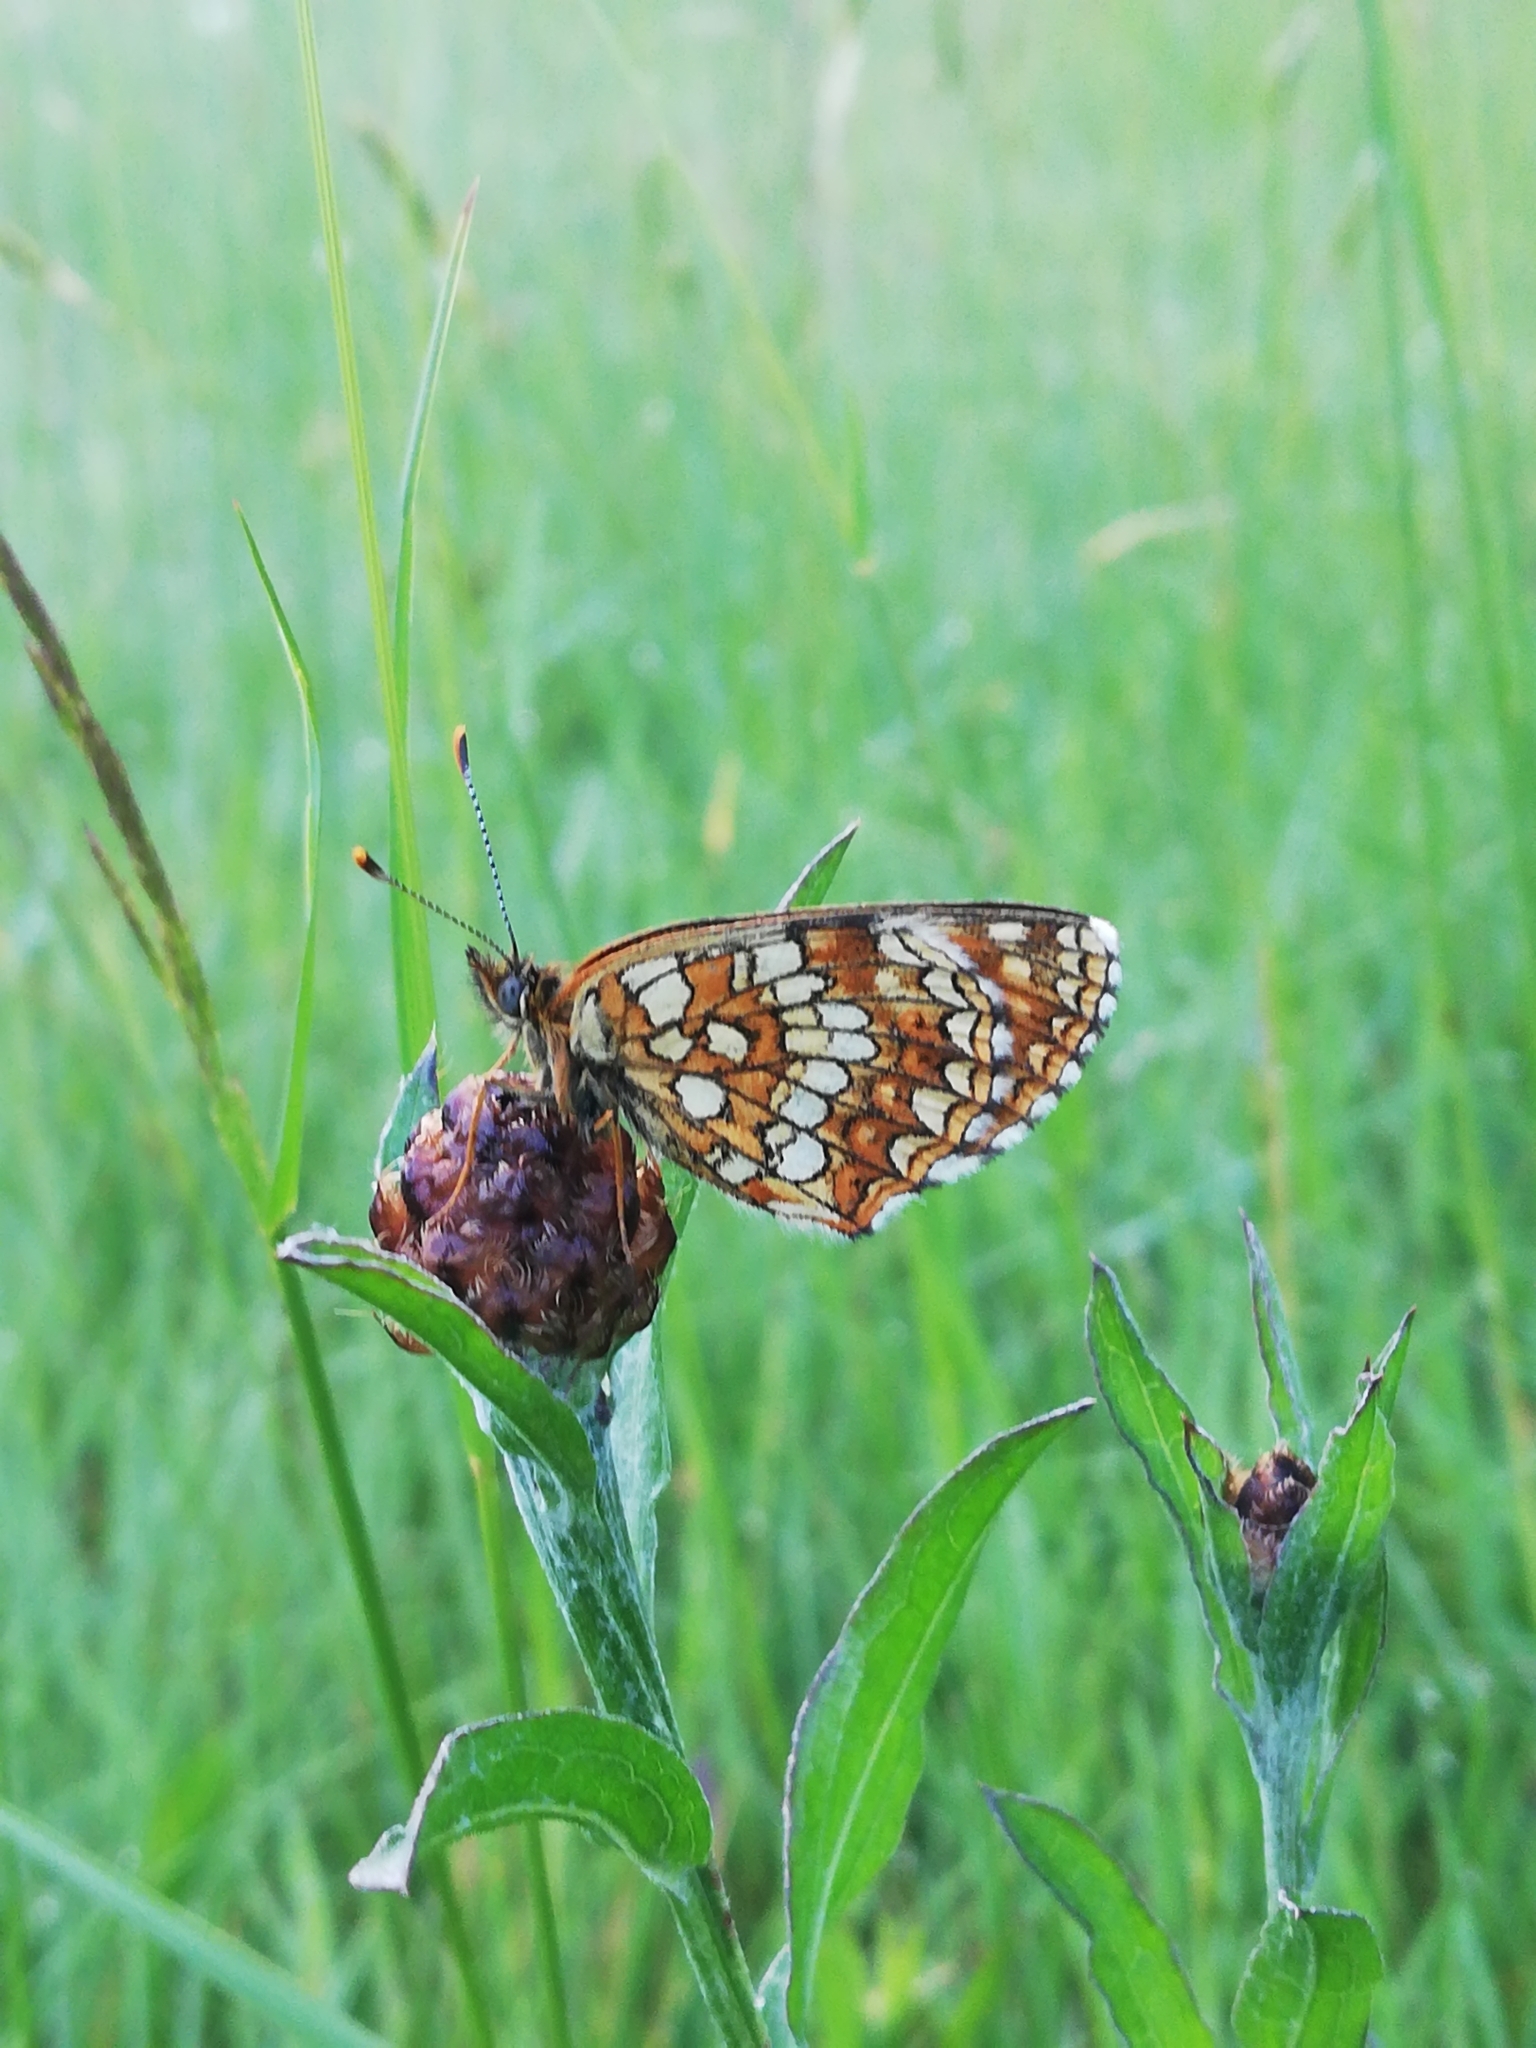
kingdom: Animalia
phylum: Arthropoda
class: Insecta
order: Lepidoptera
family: Nymphalidae
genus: Melitaea
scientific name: Melitaea diamina
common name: False heath fritillary
